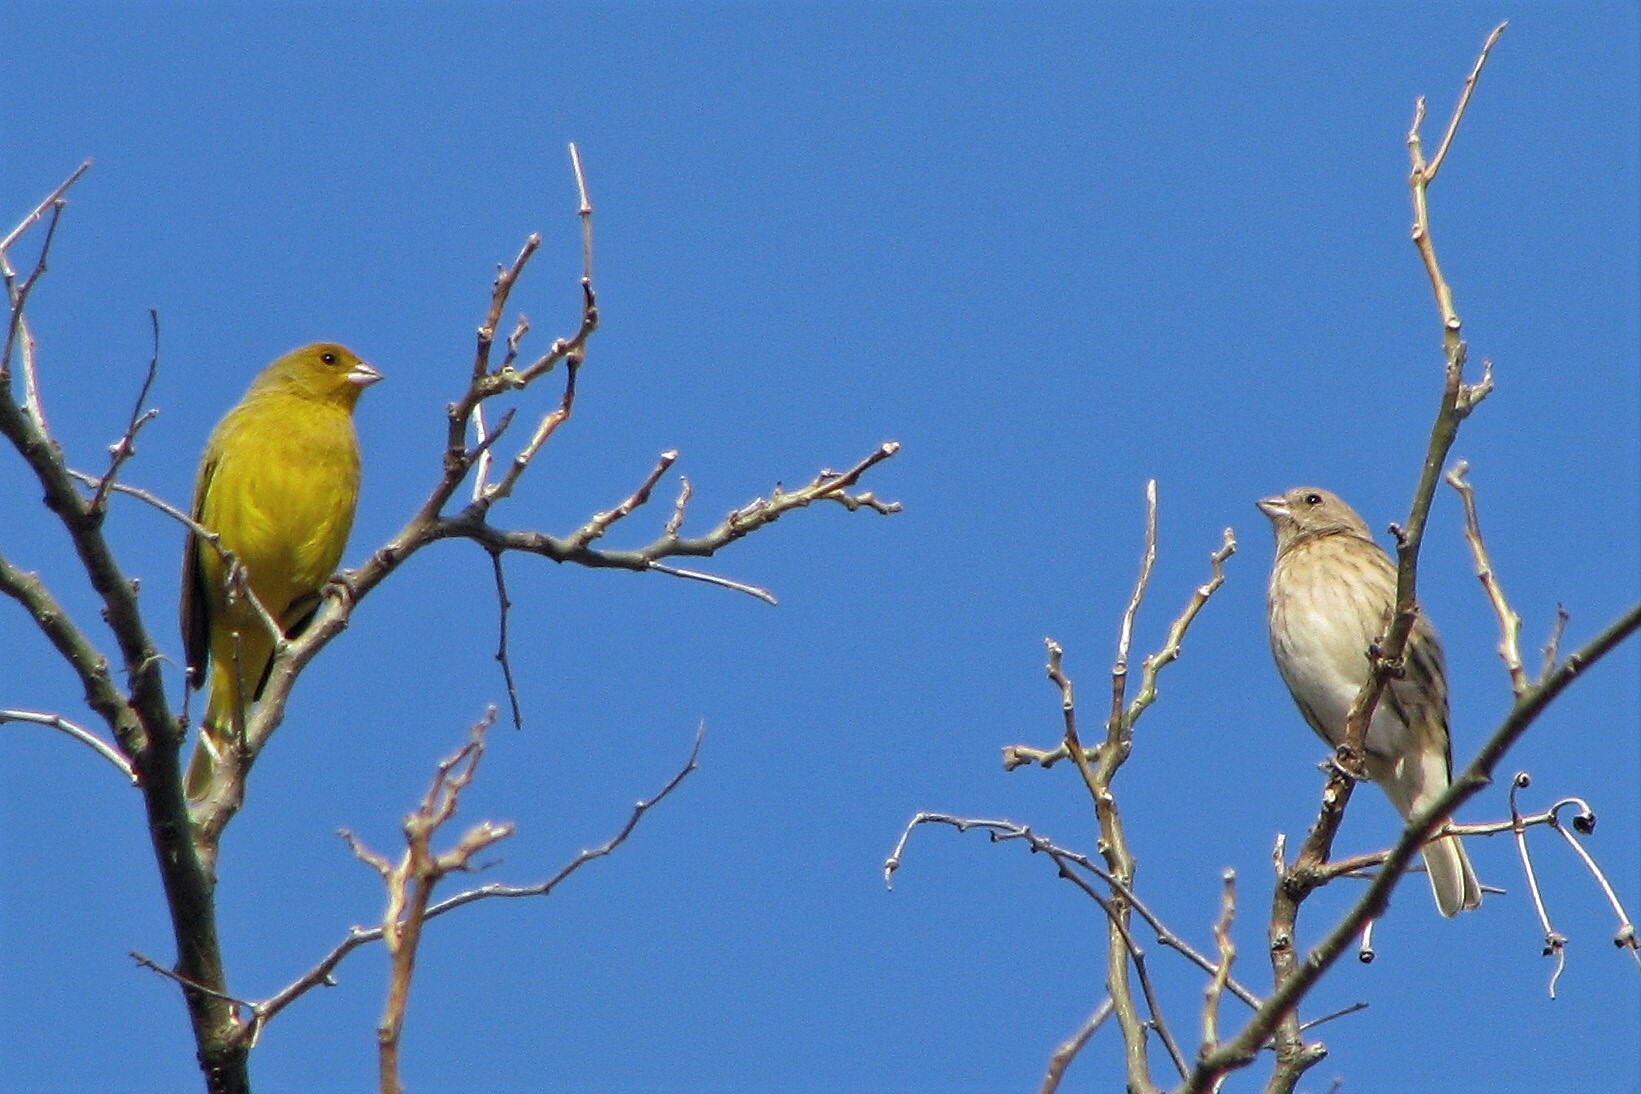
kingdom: Animalia
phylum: Chordata
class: Aves
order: Passeriformes
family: Thraupidae
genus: Sicalis
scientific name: Sicalis flaveola
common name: Saffron finch
